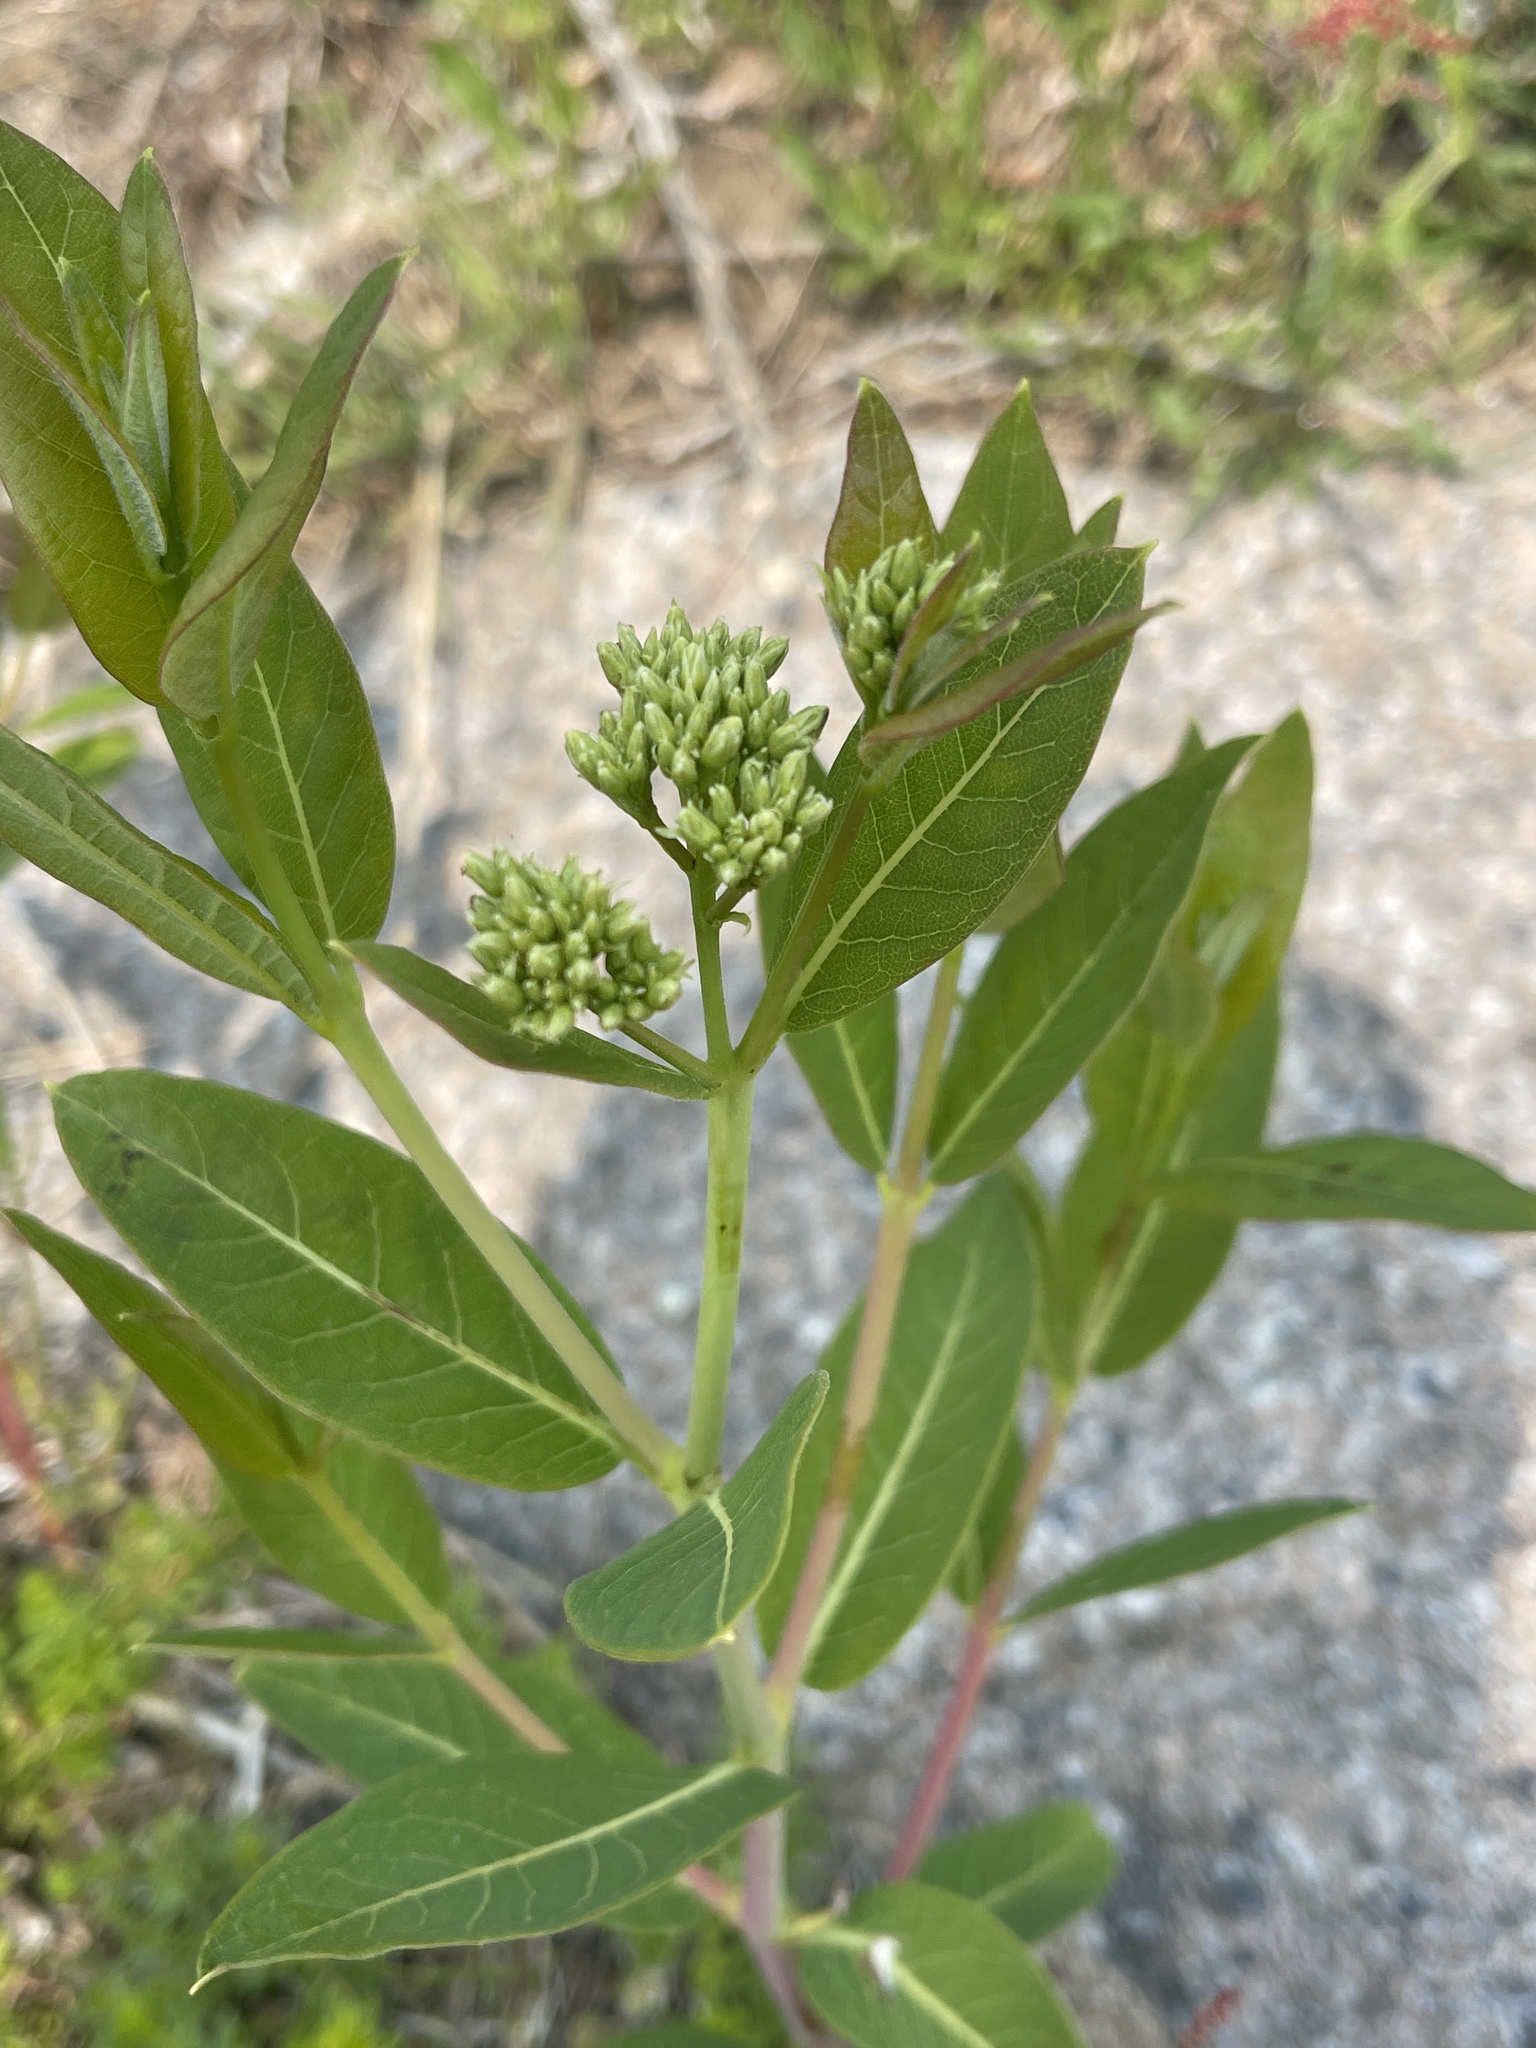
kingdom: Plantae
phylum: Tracheophyta
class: Magnoliopsida
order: Gentianales
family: Apocynaceae
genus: Apocynum
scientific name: Apocynum cannabinum
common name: Hemp dogbane
